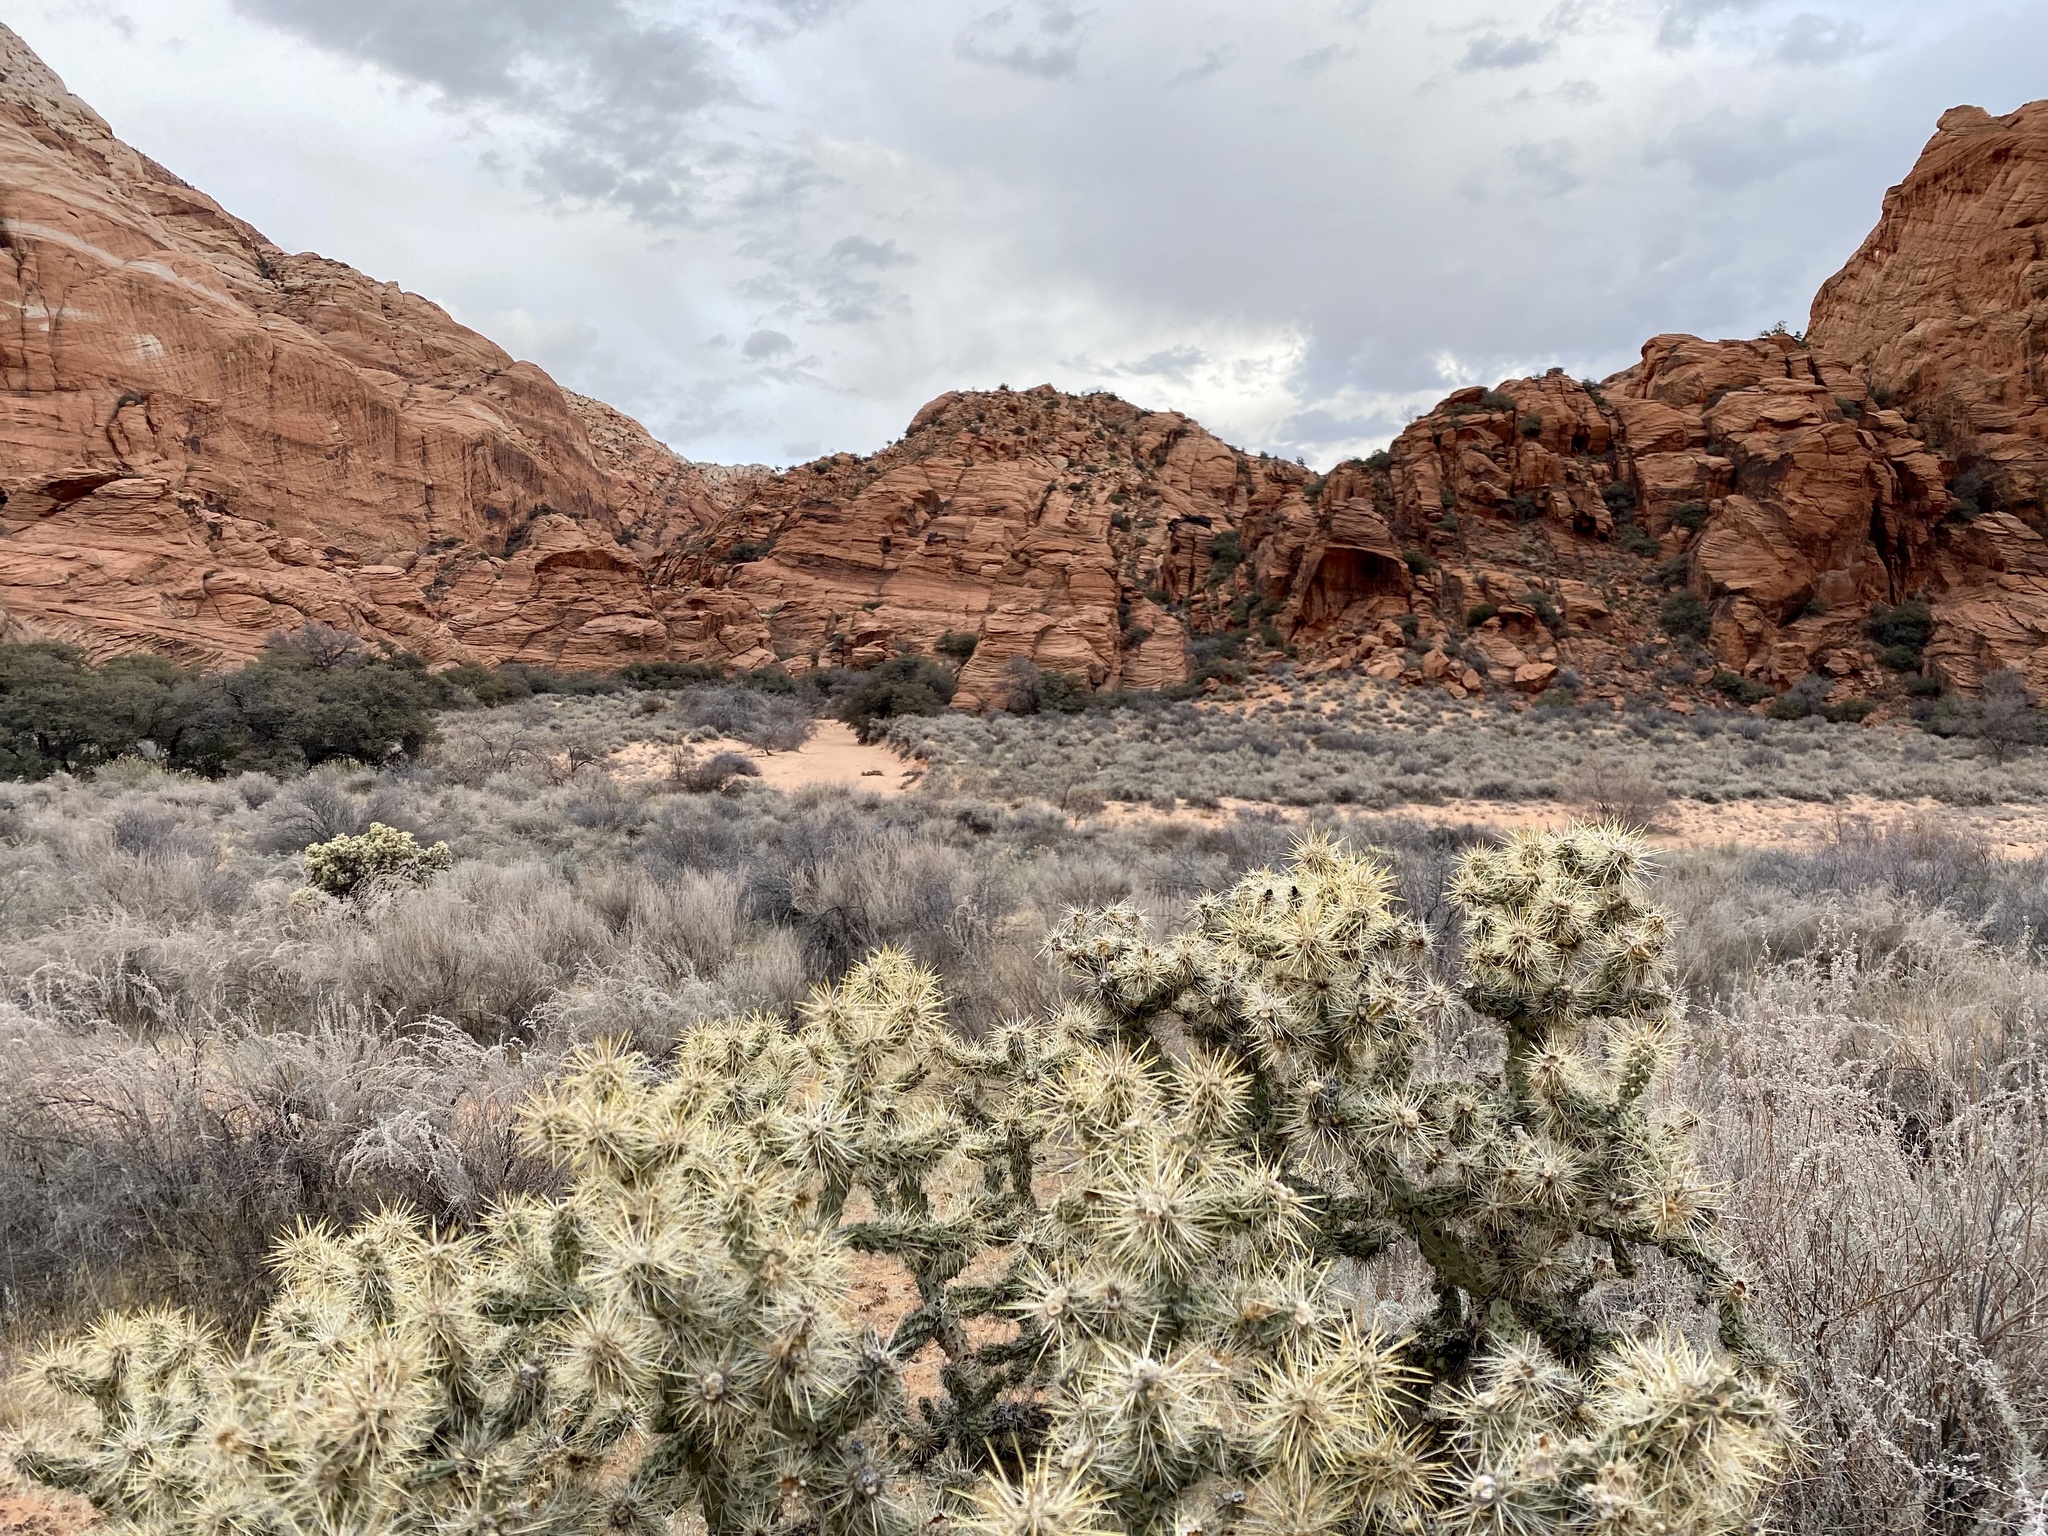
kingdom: Plantae
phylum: Tracheophyta
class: Magnoliopsida
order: Caryophyllales
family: Cactaceae
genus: Cylindropuntia
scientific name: Cylindropuntia echinocarpa
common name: Ground cholla
